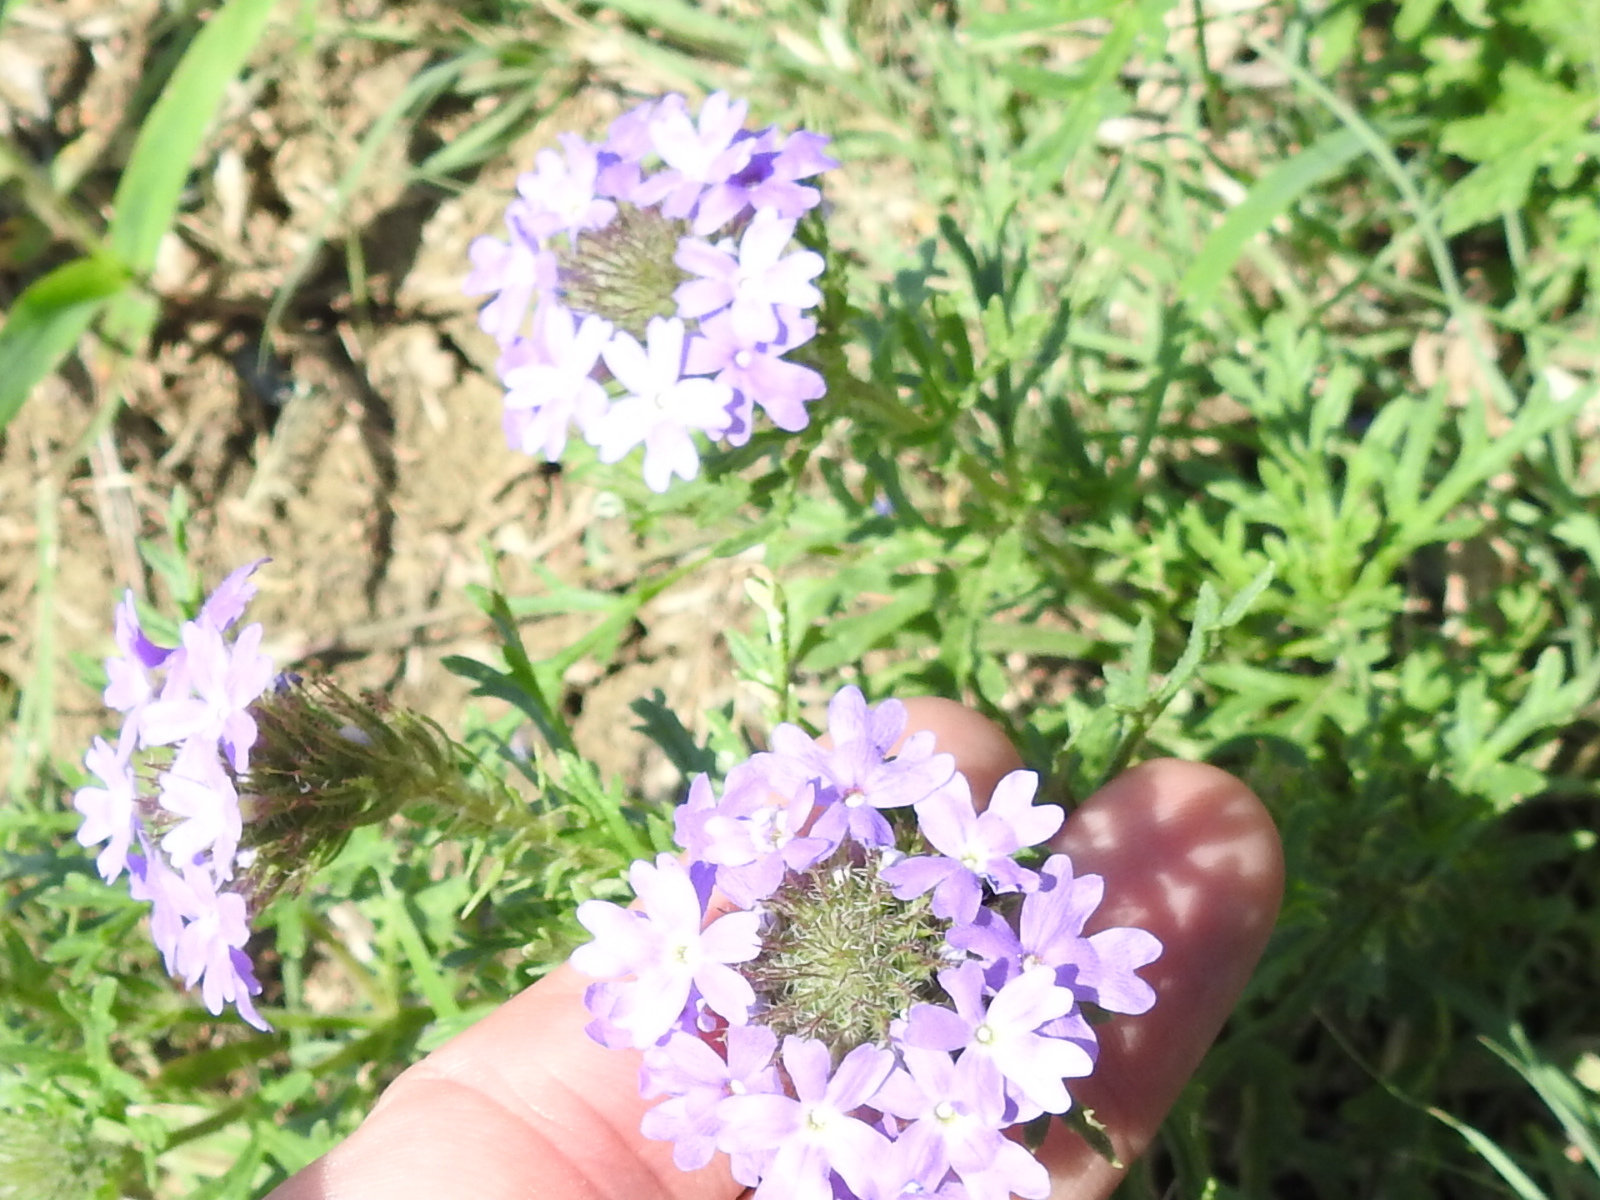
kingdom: Plantae
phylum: Tracheophyta
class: Magnoliopsida
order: Lamiales
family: Verbenaceae
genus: Verbena
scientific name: Verbena bipinnatifida
